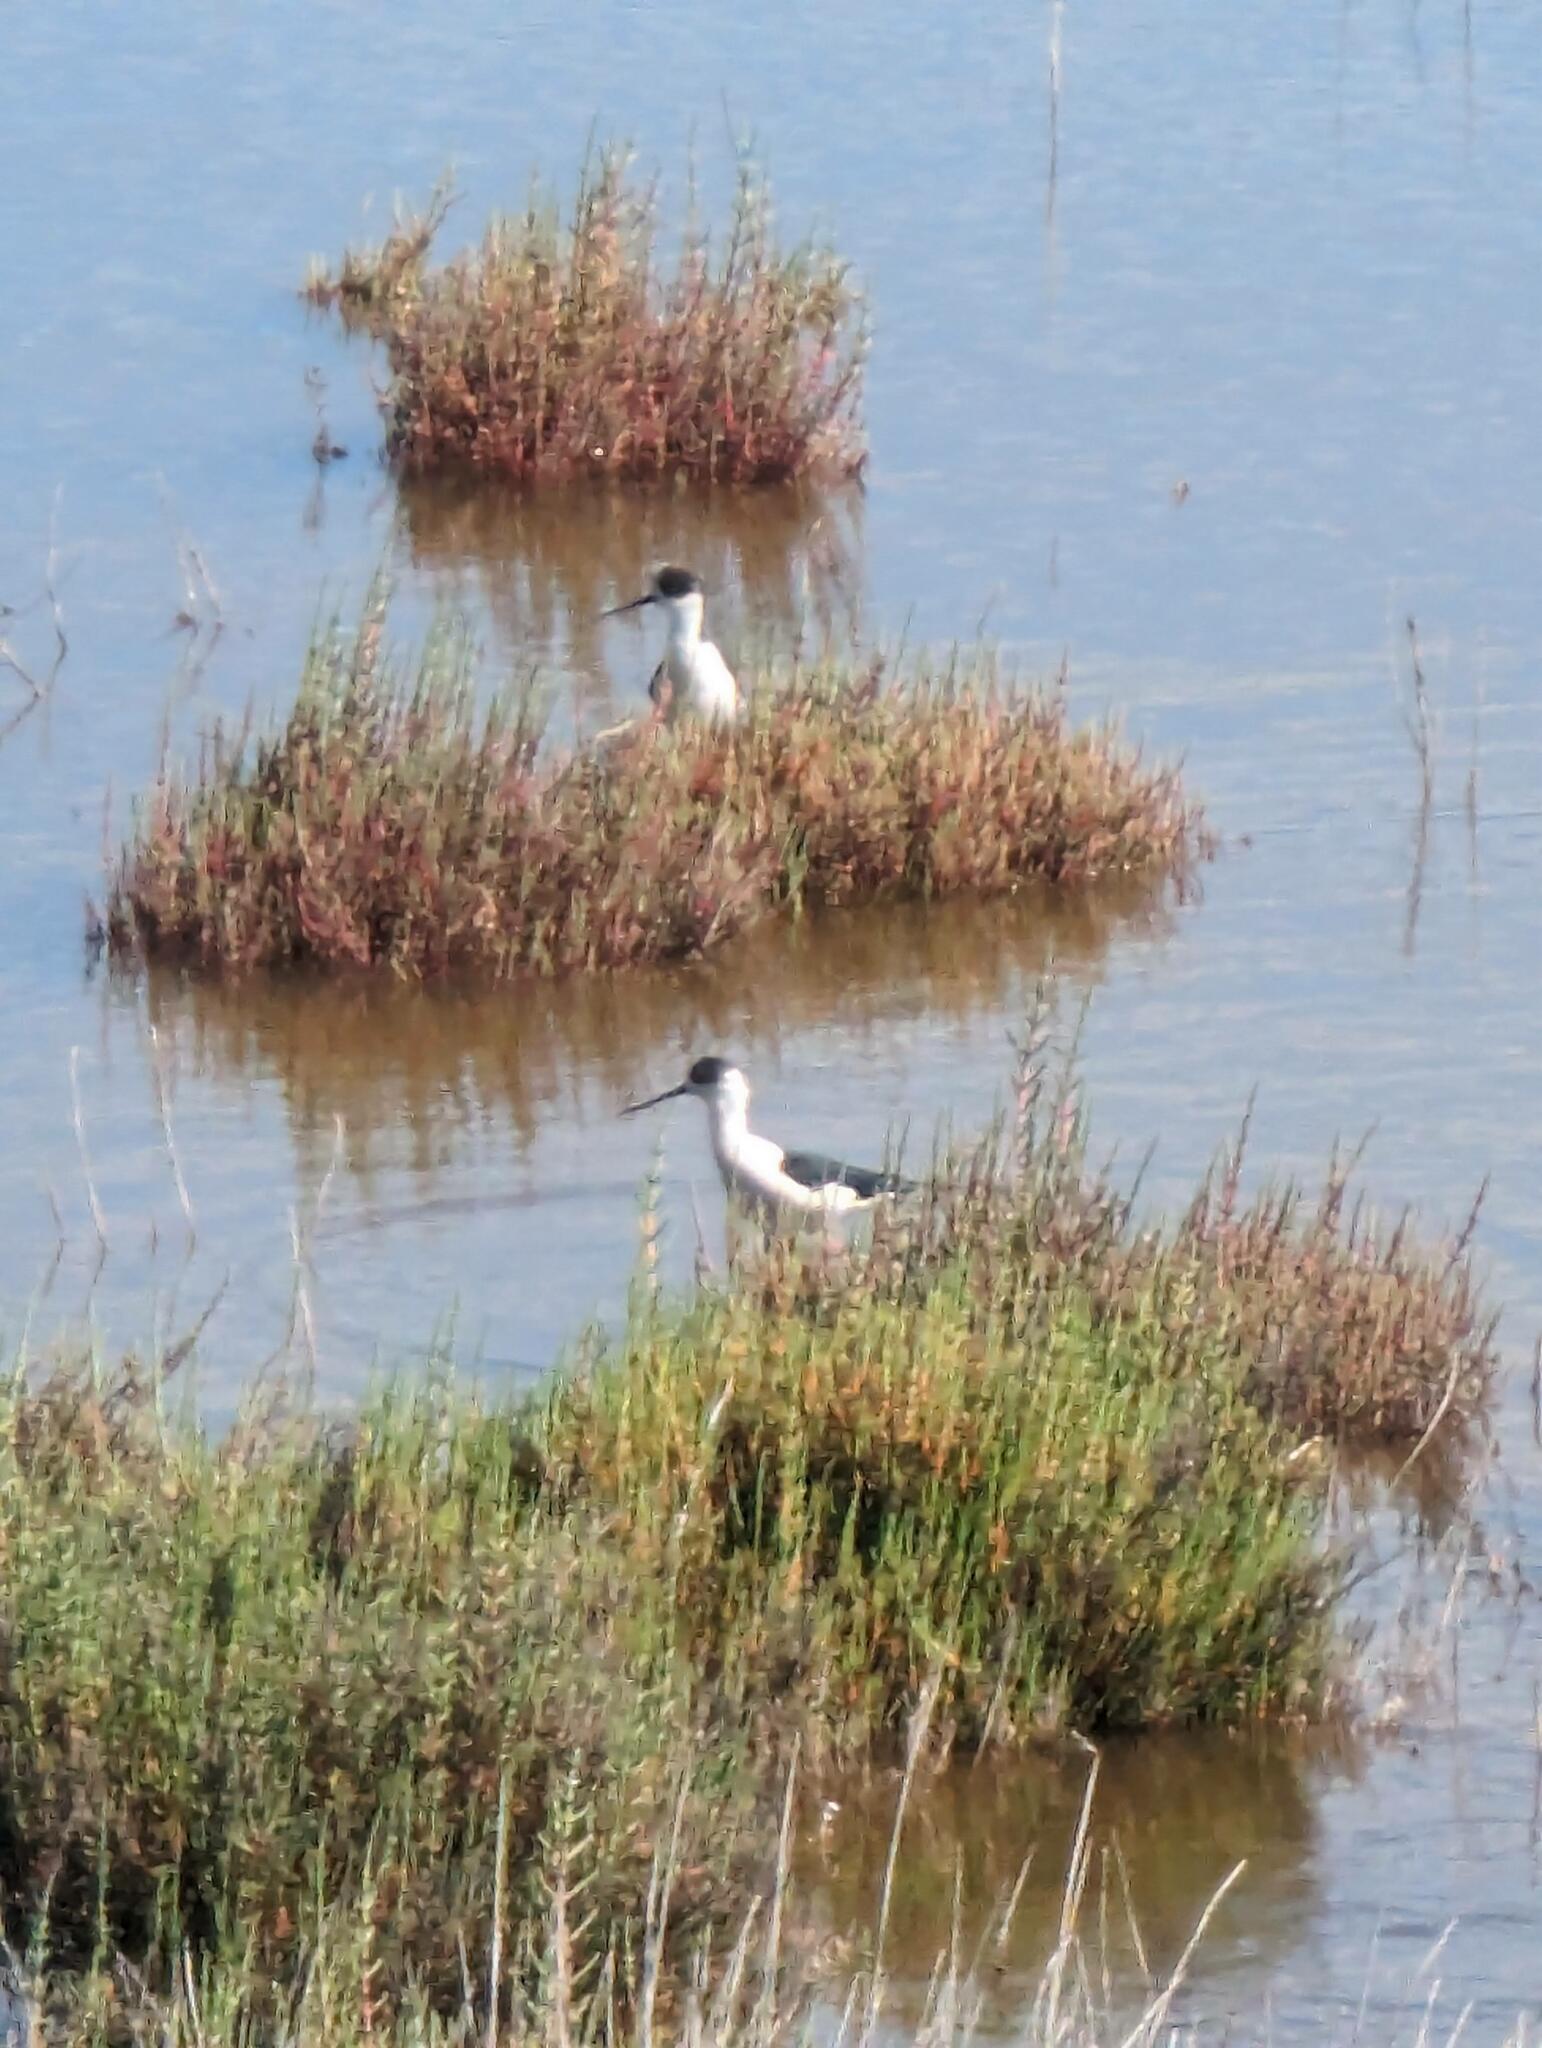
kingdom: Animalia
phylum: Chordata
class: Aves
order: Charadriiformes
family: Recurvirostridae
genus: Himantopus
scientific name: Himantopus himantopus
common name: Black-winged stilt
